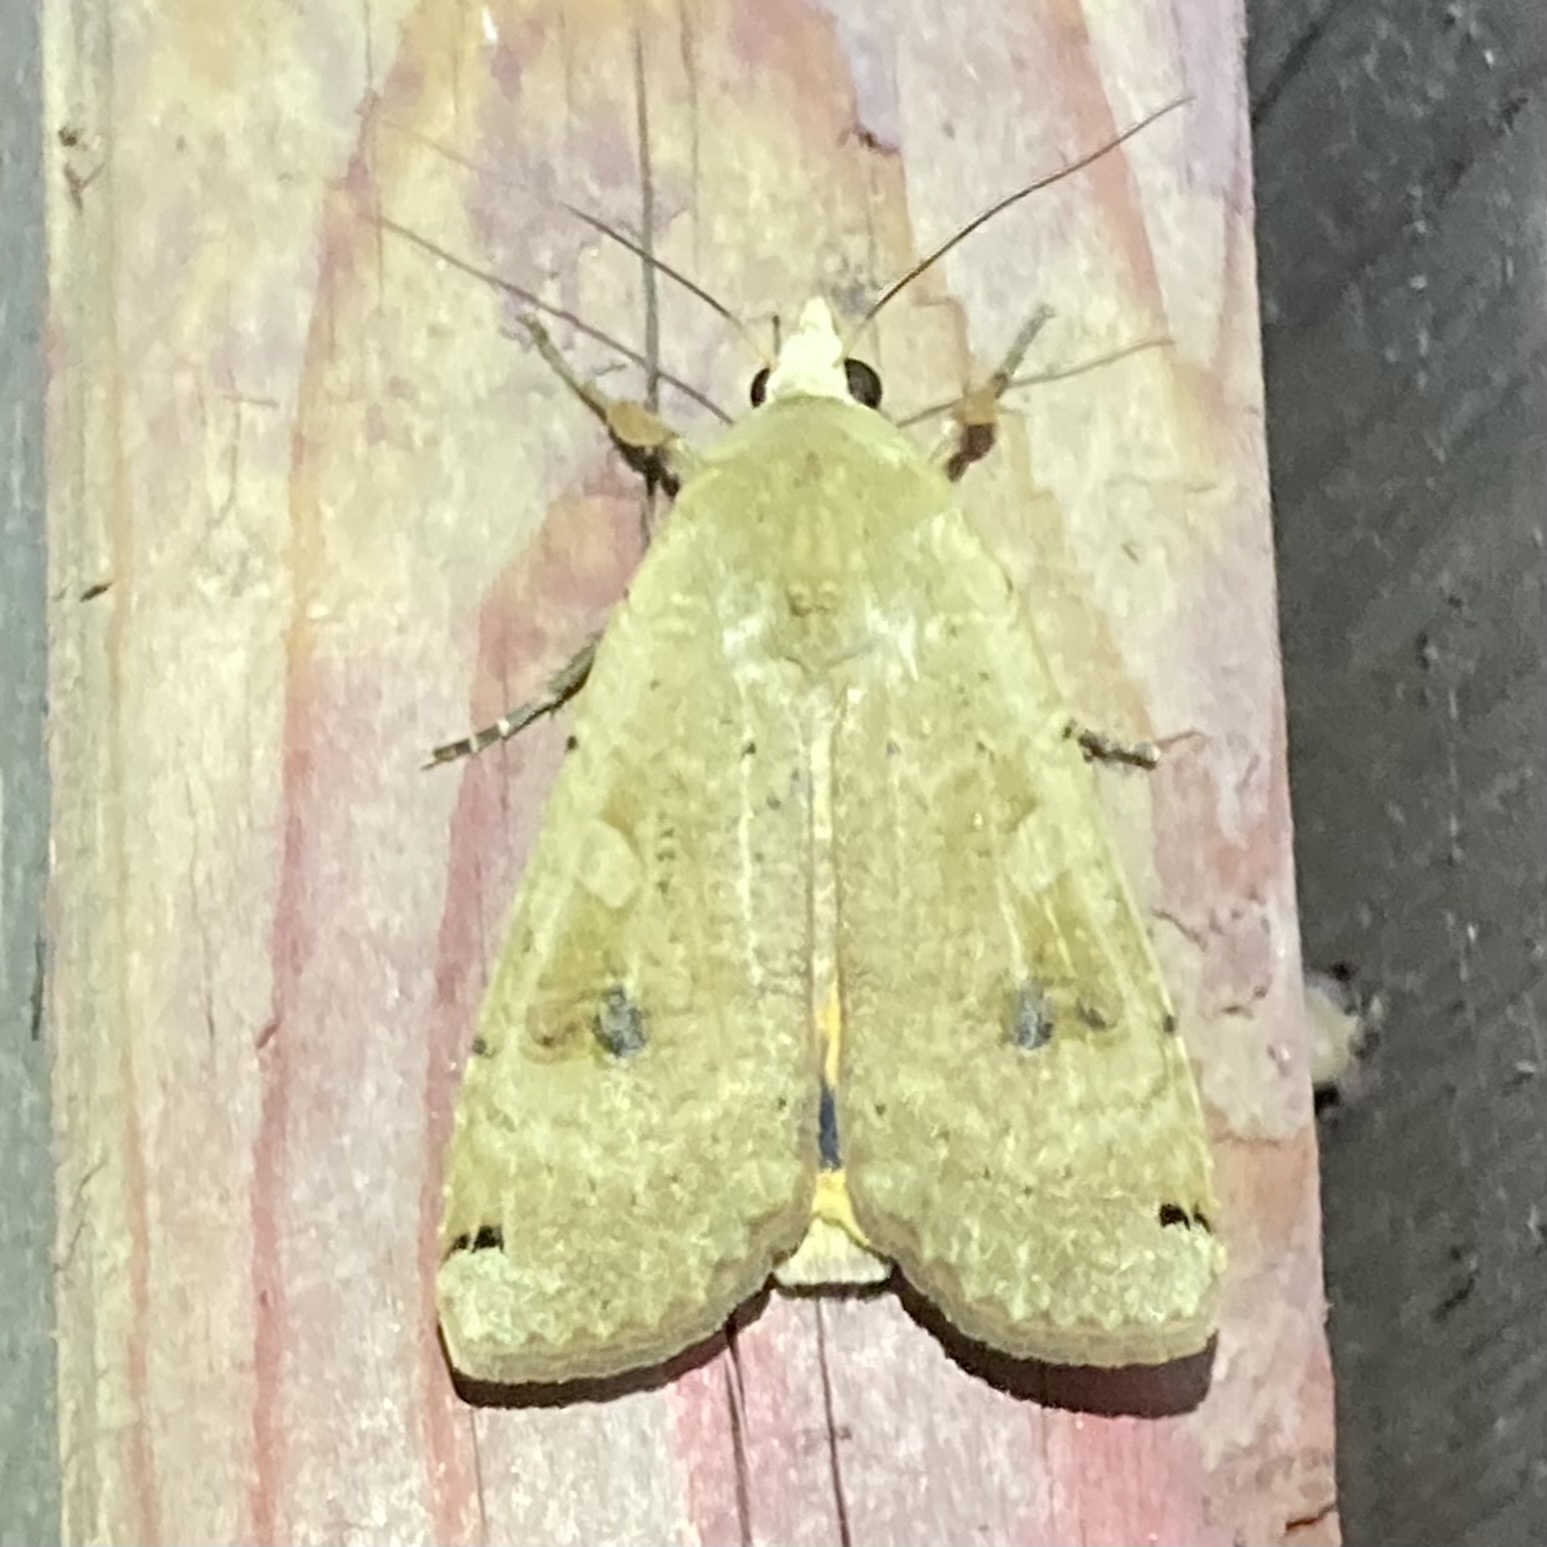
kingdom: Animalia
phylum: Arthropoda
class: Insecta
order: Lepidoptera
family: Noctuidae
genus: Noctua
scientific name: Noctua pronuba
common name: Large yellow underwing
